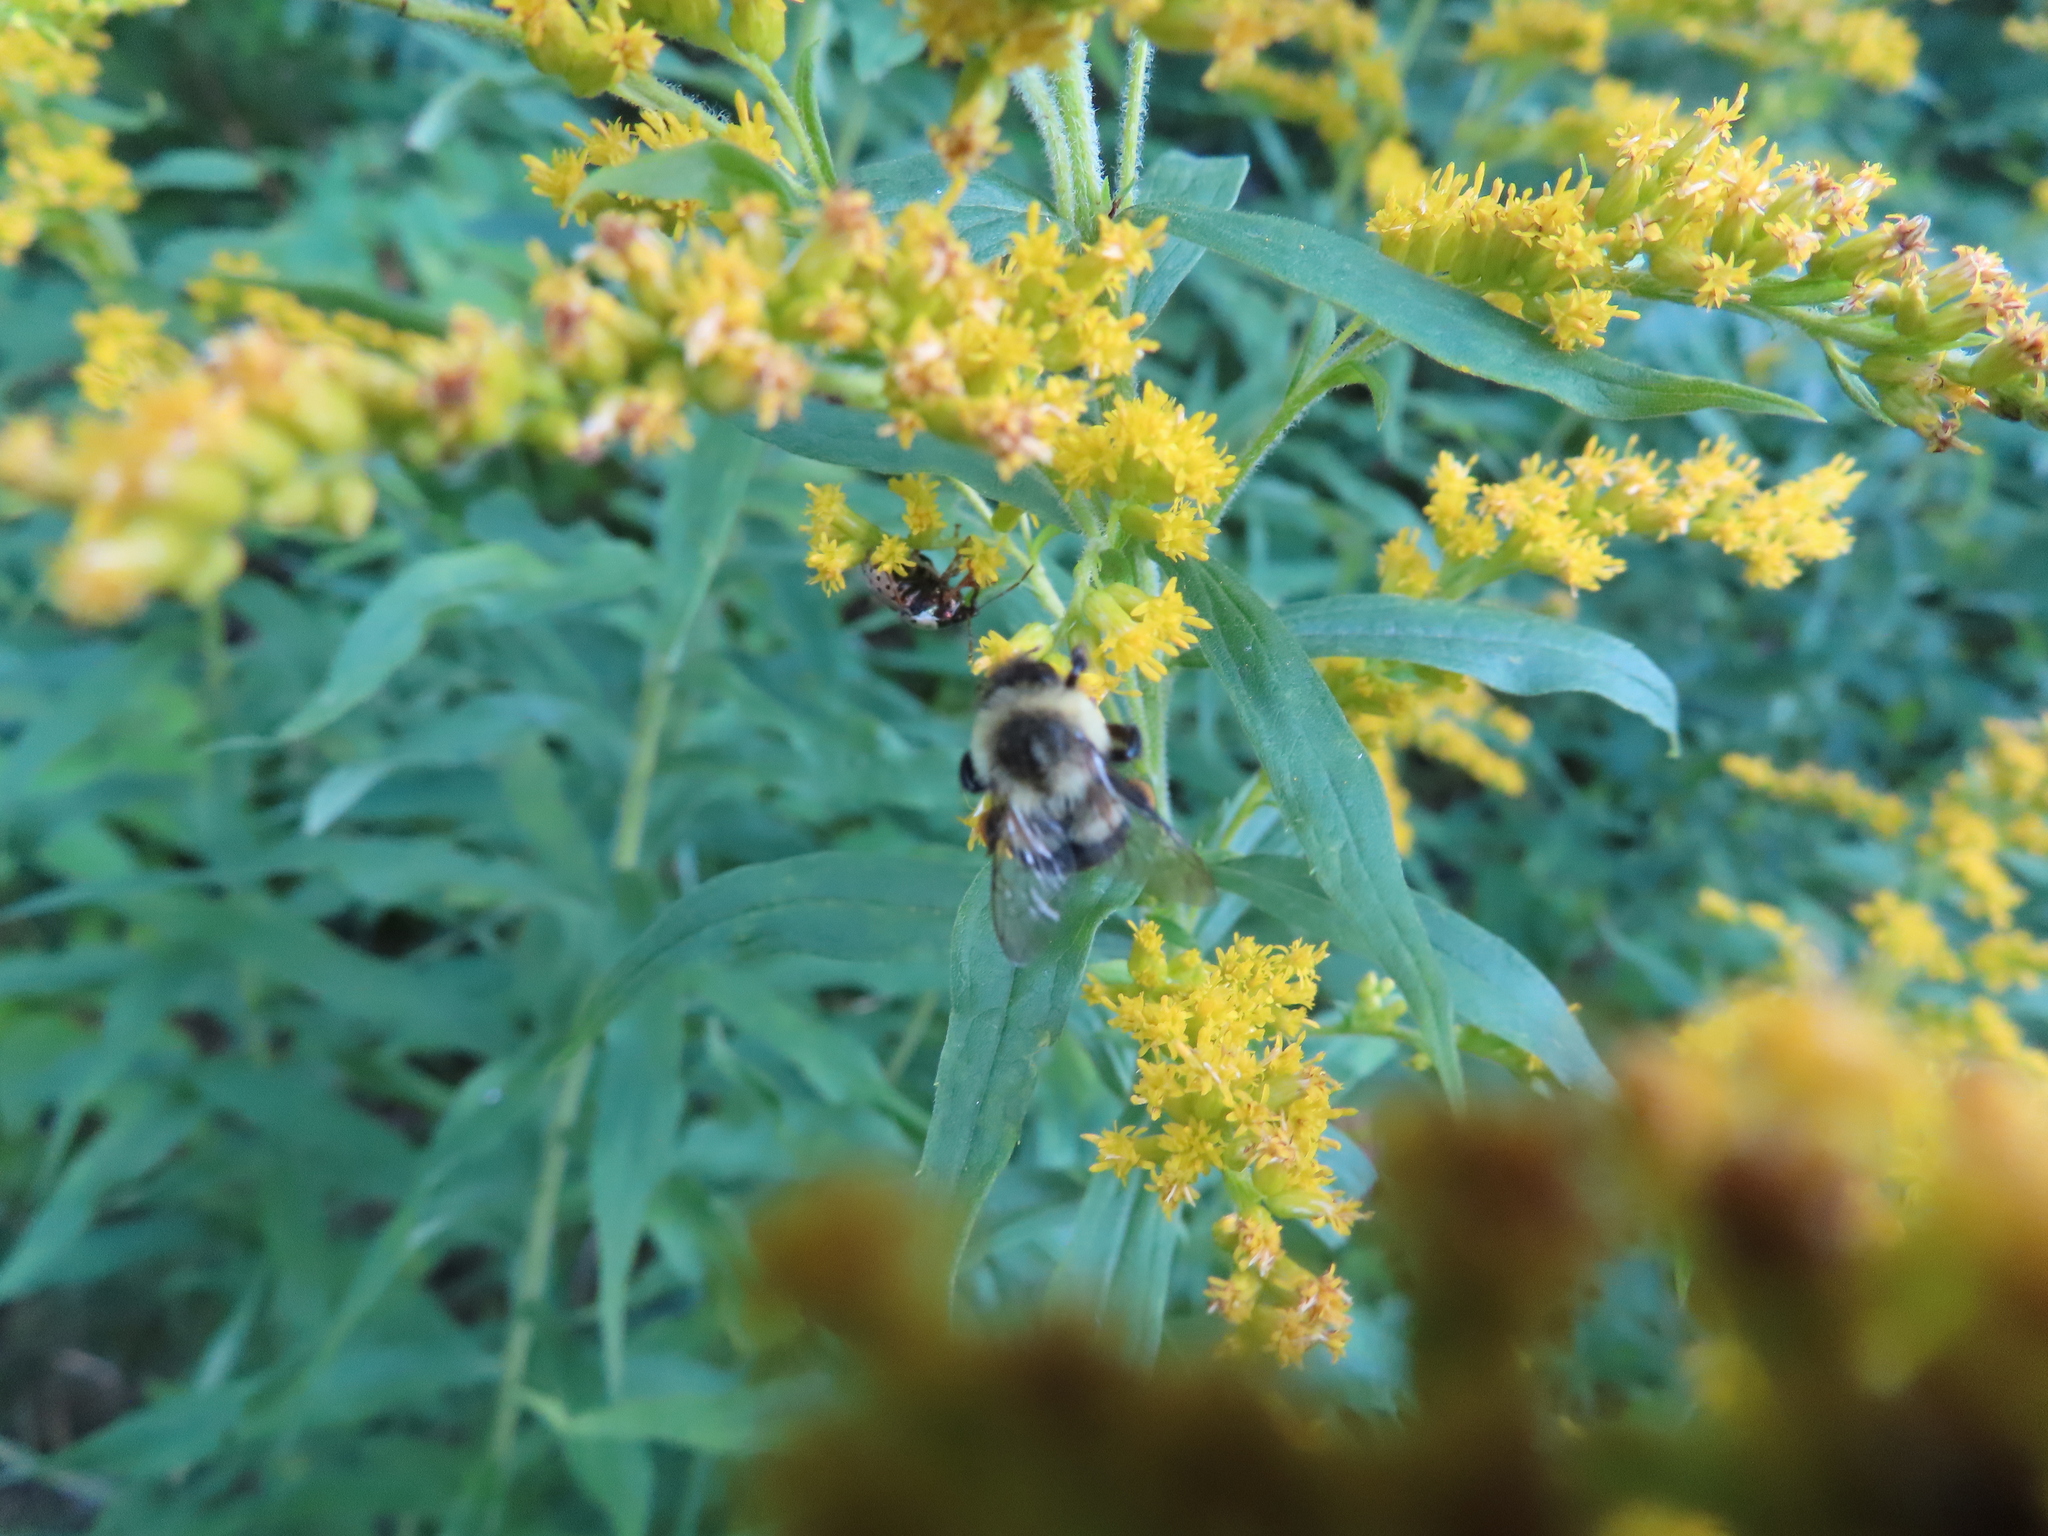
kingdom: Animalia
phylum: Arthropoda
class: Insecta
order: Hymenoptera
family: Apidae
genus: Bombus
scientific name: Bombus impatiens
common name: Common eastern bumble bee
